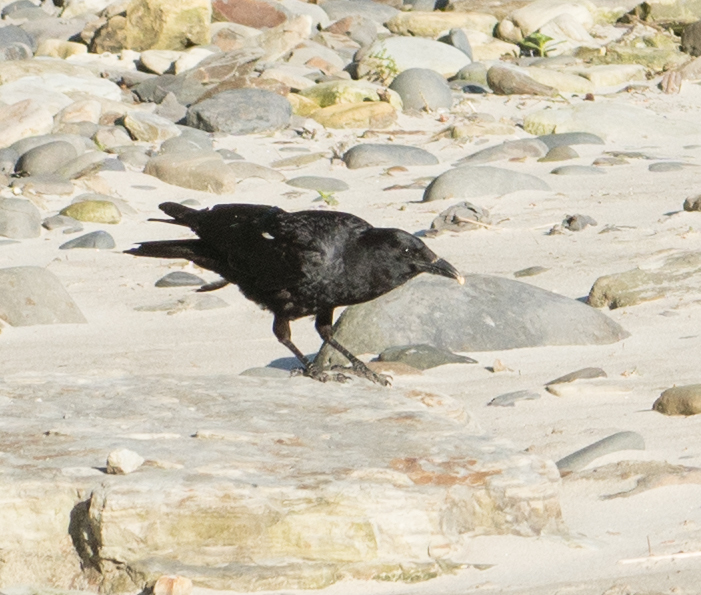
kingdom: Animalia
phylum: Chordata
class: Aves
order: Passeriformes
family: Corvidae
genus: Corvus
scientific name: Corvus brachyrhynchos
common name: American crow
